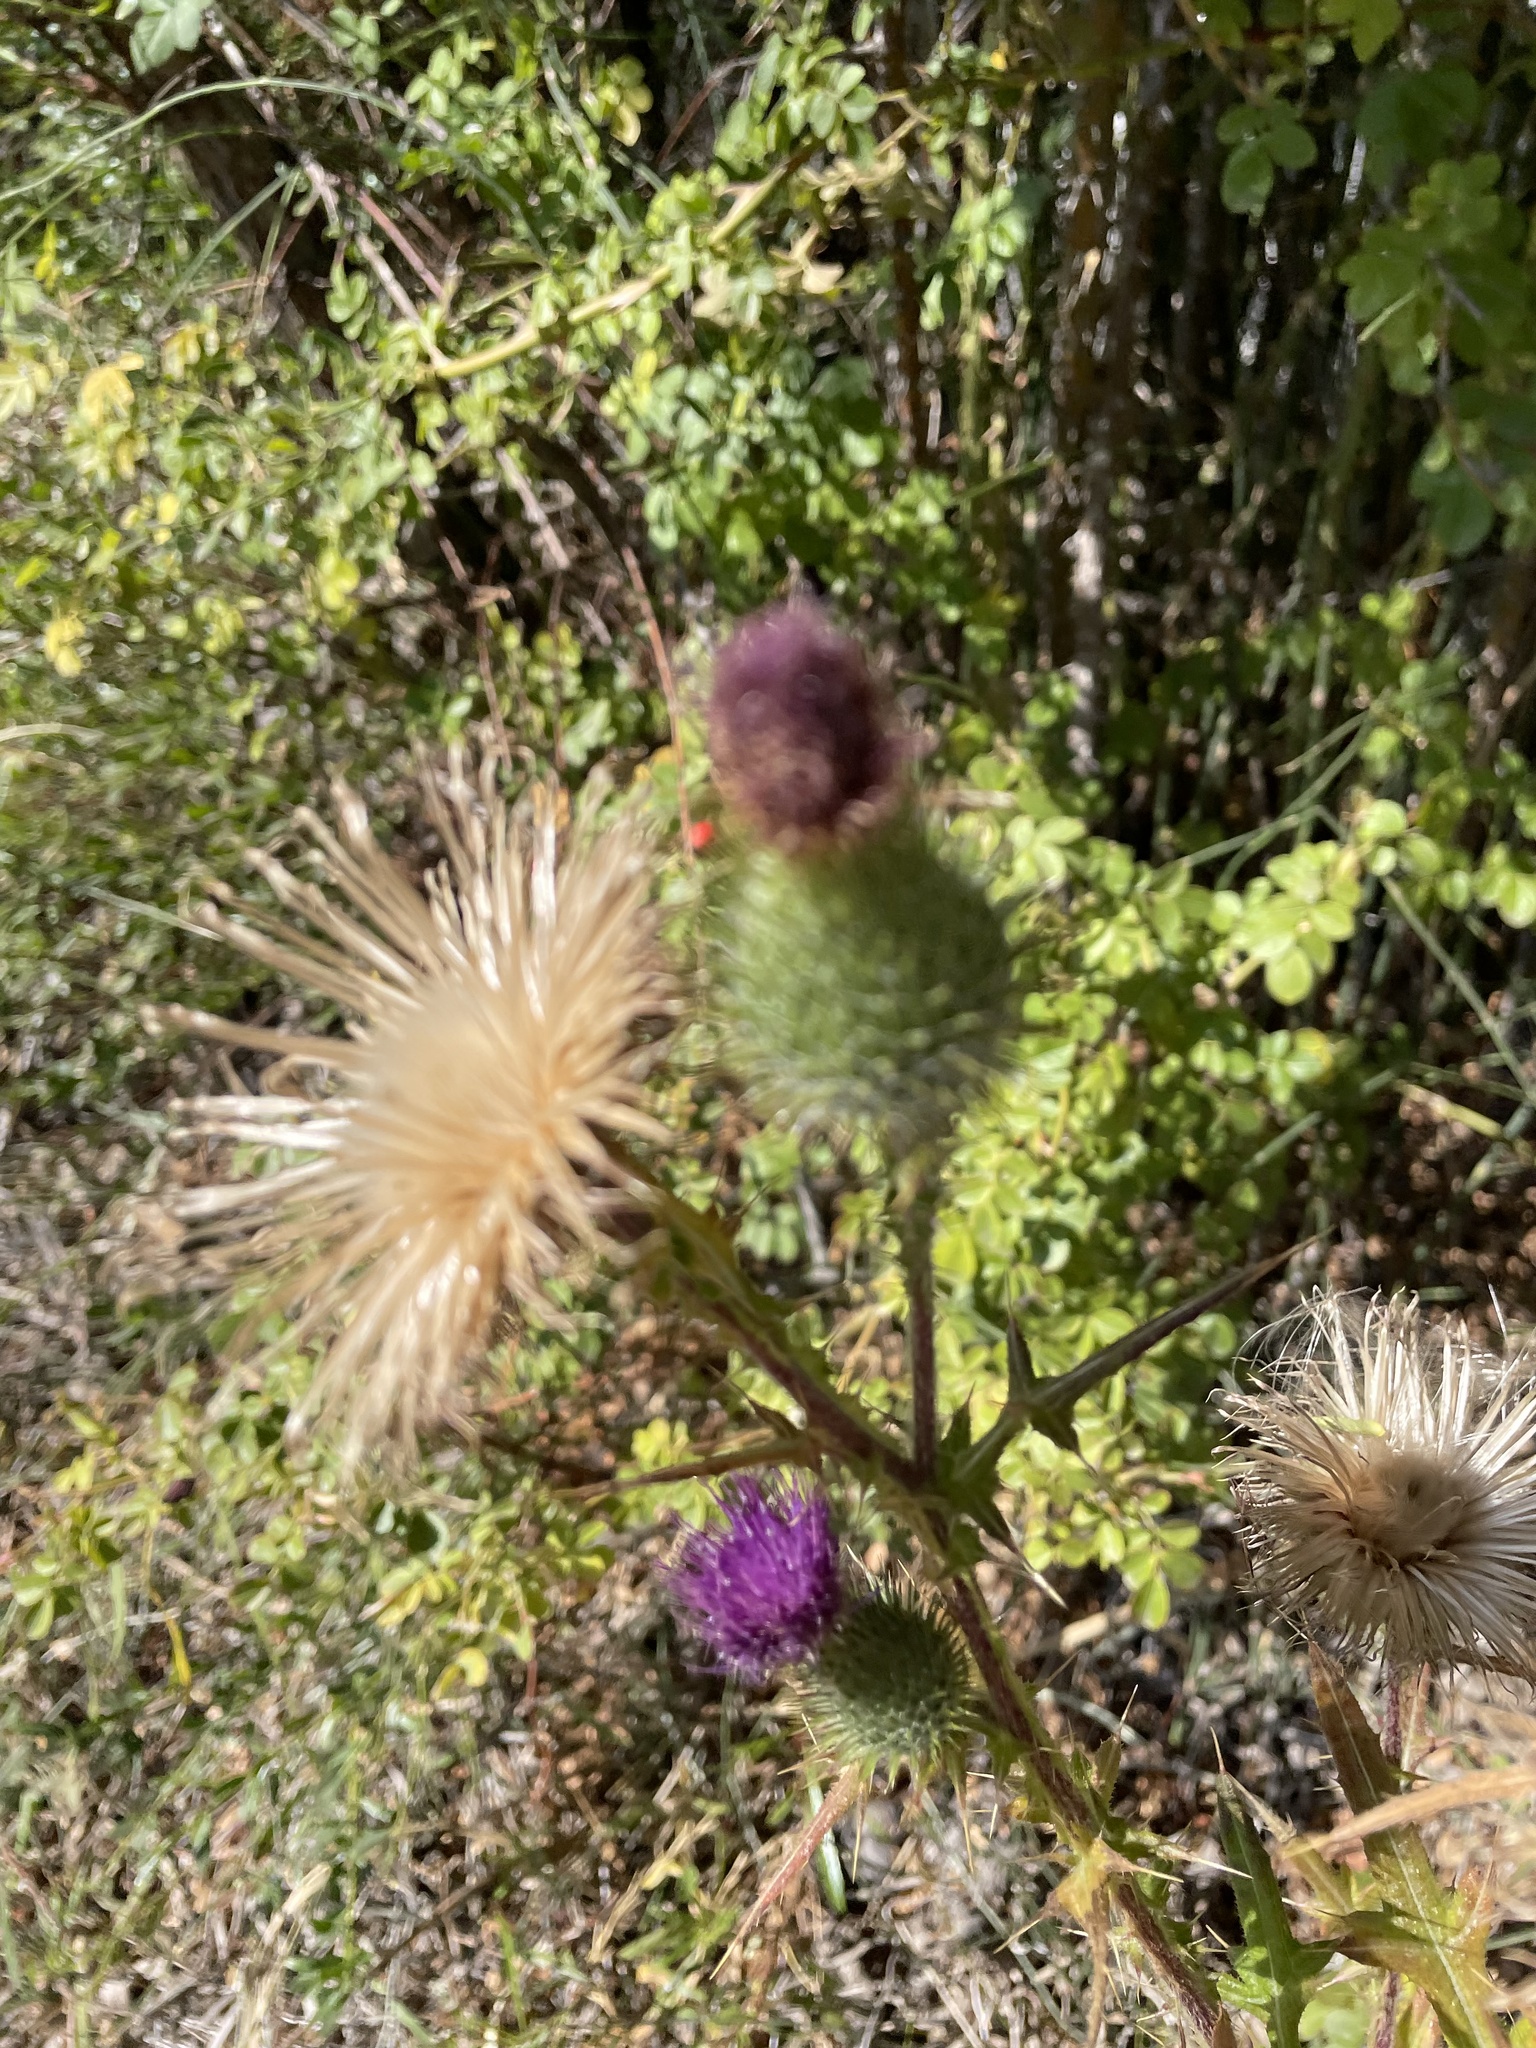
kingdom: Plantae
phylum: Tracheophyta
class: Magnoliopsida
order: Asterales
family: Asteraceae
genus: Cirsium
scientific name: Cirsium vulgare
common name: Bull thistle
